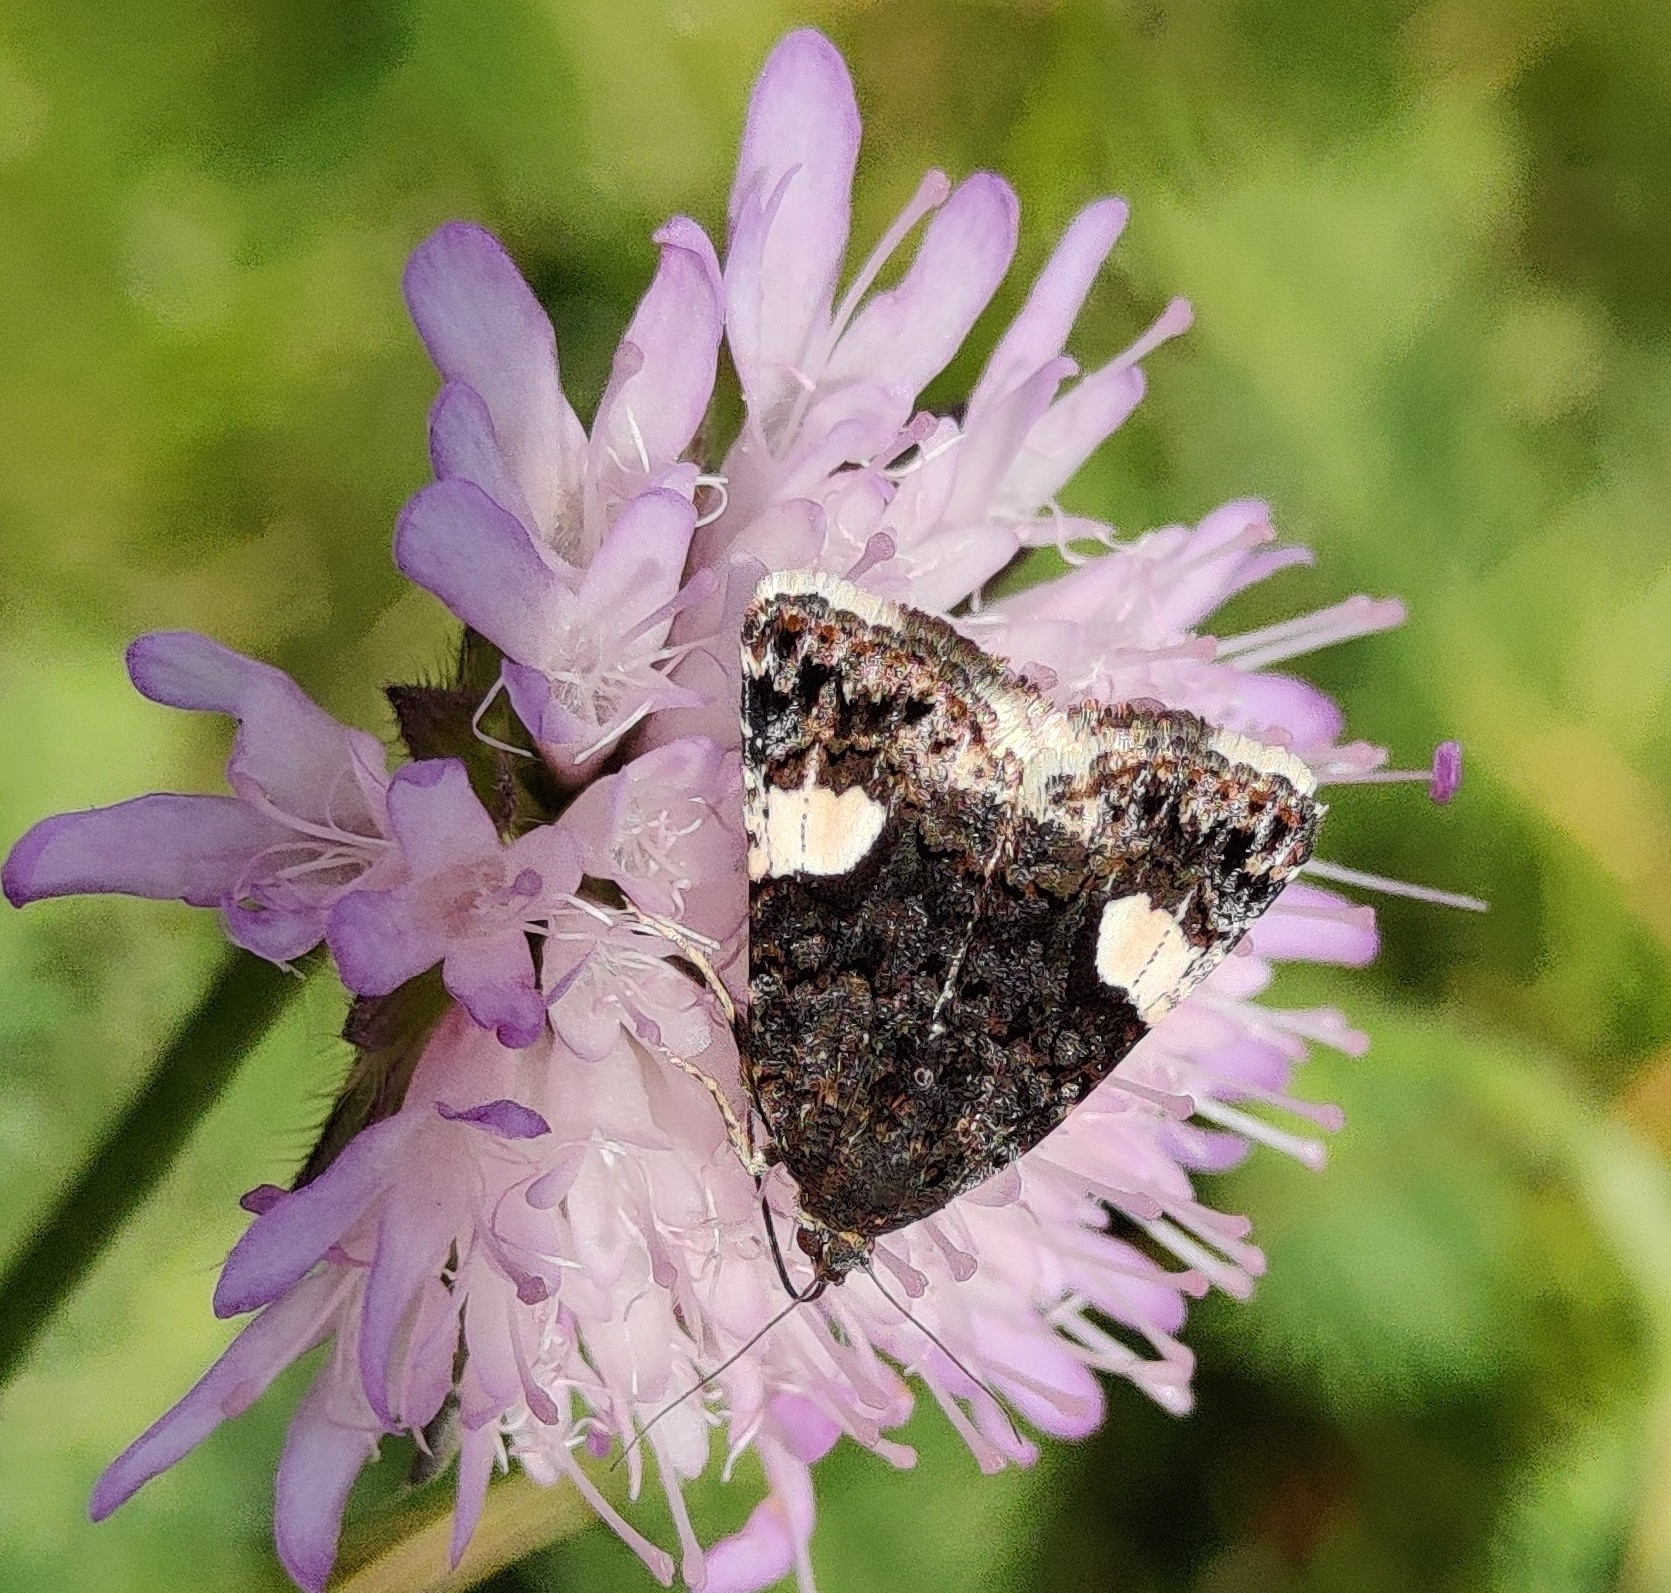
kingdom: Animalia
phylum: Arthropoda
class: Insecta
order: Lepidoptera
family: Erebidae
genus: Tyta
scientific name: Tyta luctuosa
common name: Four-spotted
